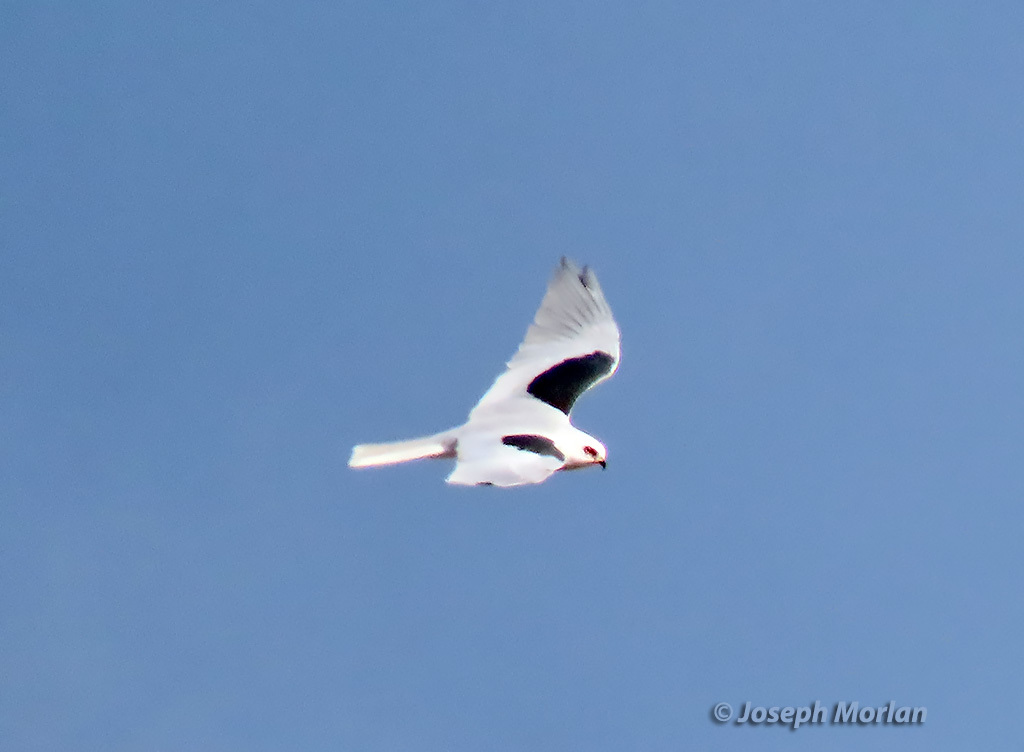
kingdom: Animalia
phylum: Chordata
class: Aves
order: Accipitriformes
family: Accipitridae
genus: Elanus
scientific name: Elanus leucurus
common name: White-tailed kite
